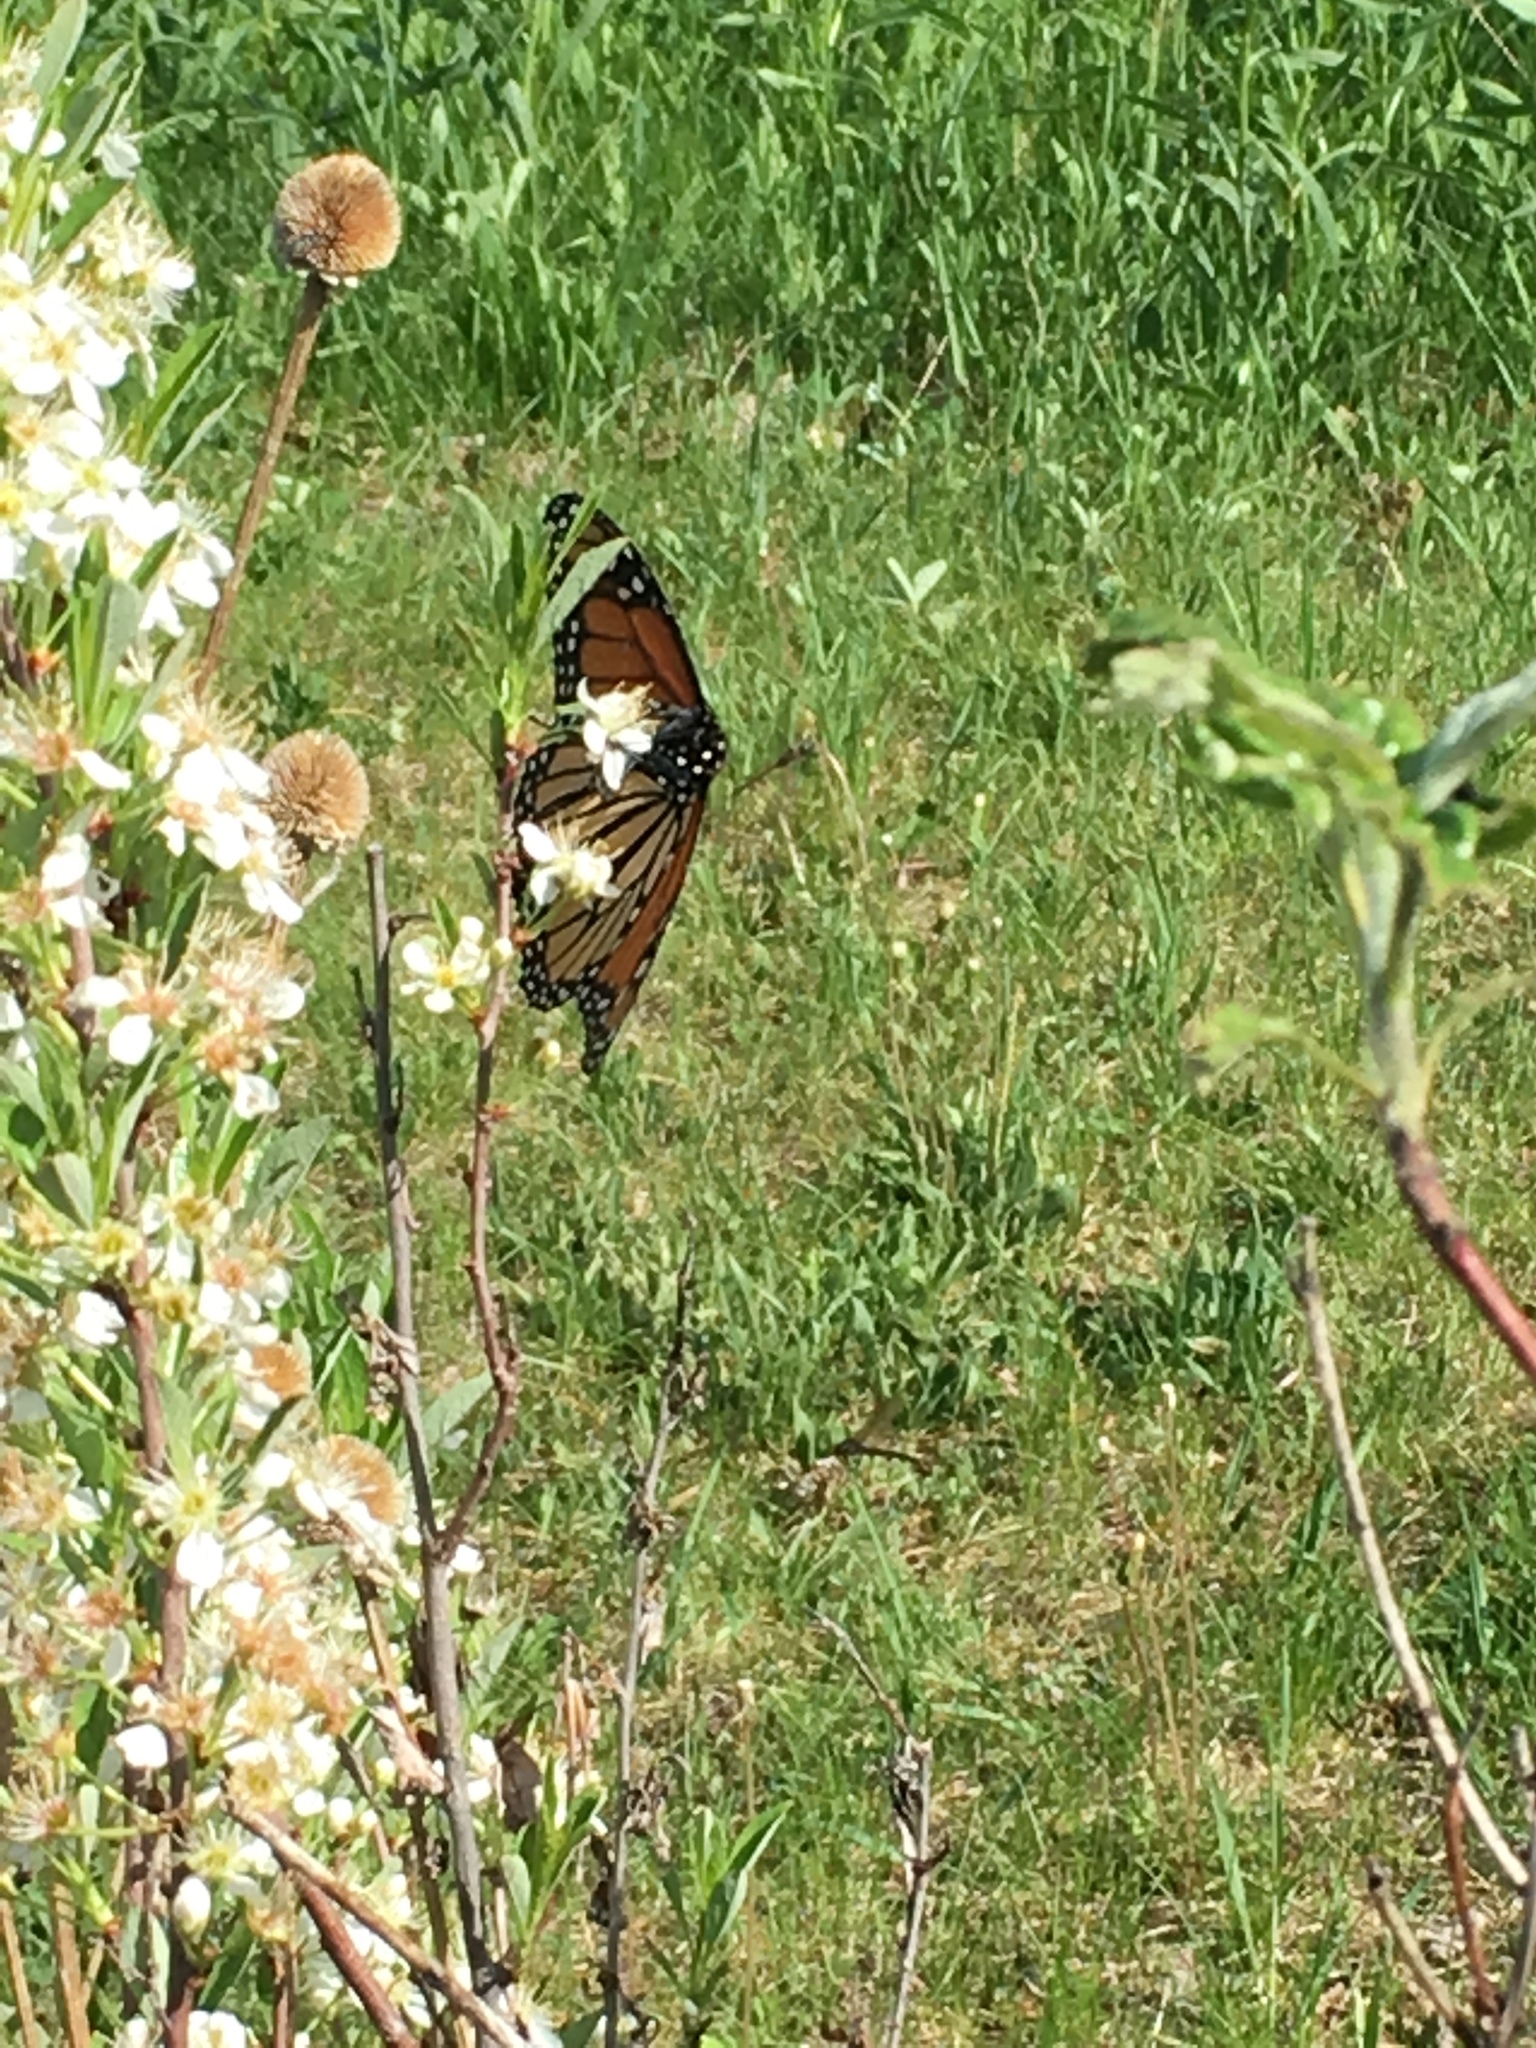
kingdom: Animalia
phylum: Arthropoda
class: Insecta
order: Lepidoptera
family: Nymphalidae
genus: Danaus
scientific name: Danaus plexippus
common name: Monarch
